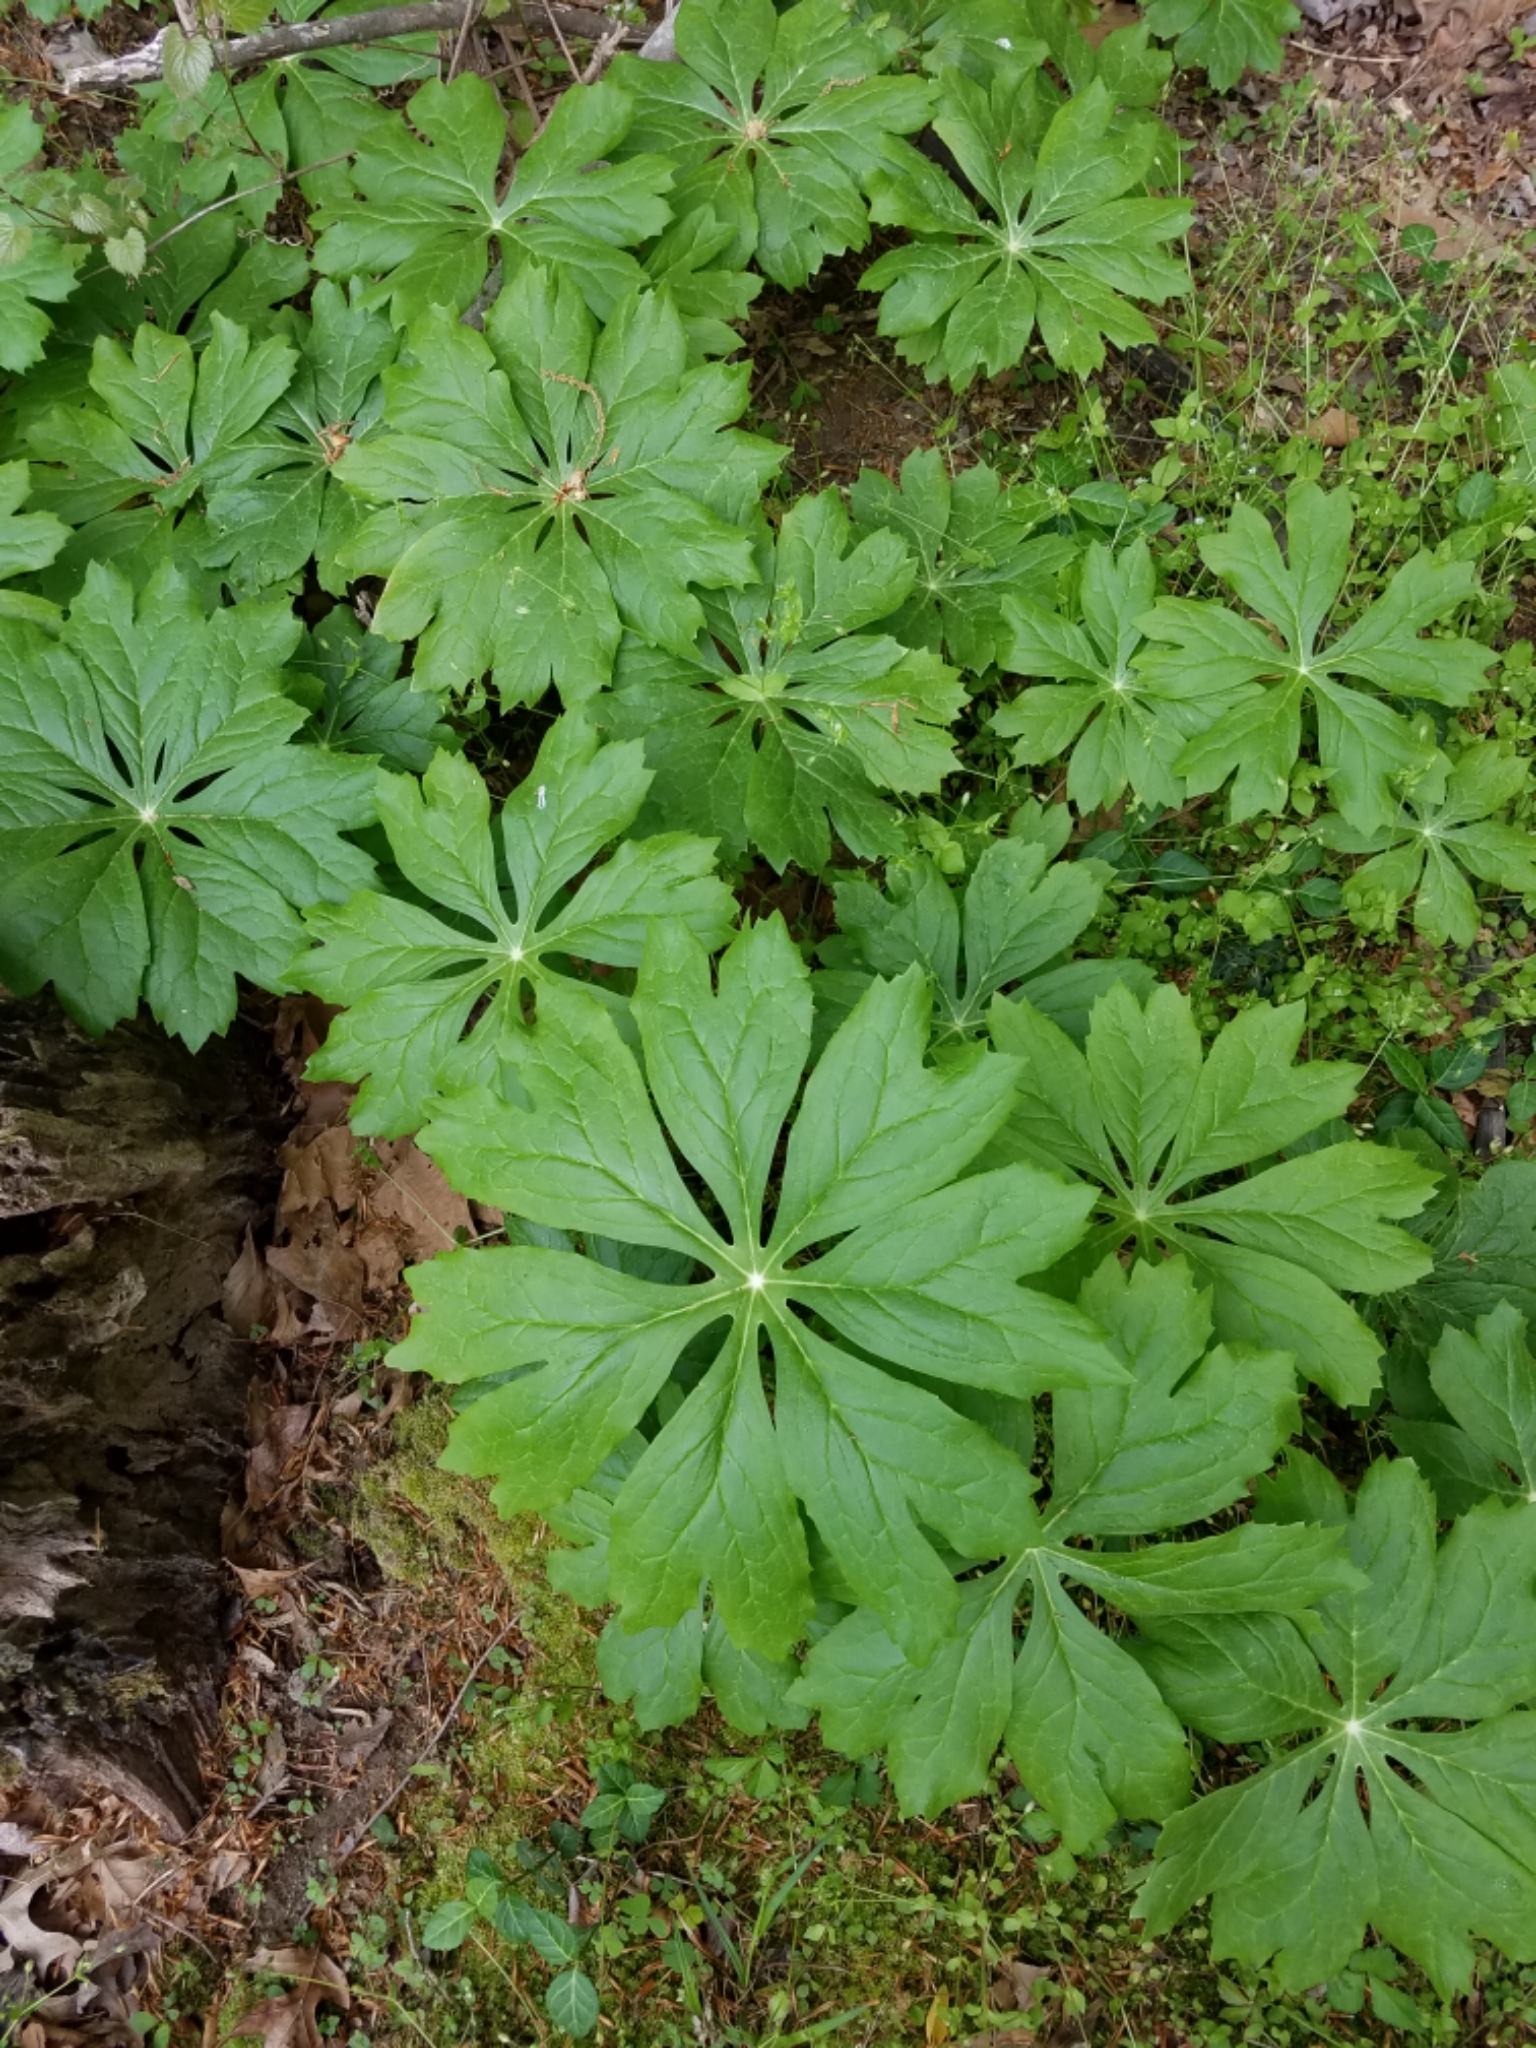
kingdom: Plantae
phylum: Tracheophyta
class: Magnoliopsida
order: Ranunculales
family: Berberidaceae
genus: Podophyllum
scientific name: Podophyllum peltatum
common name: Wild mandrake
